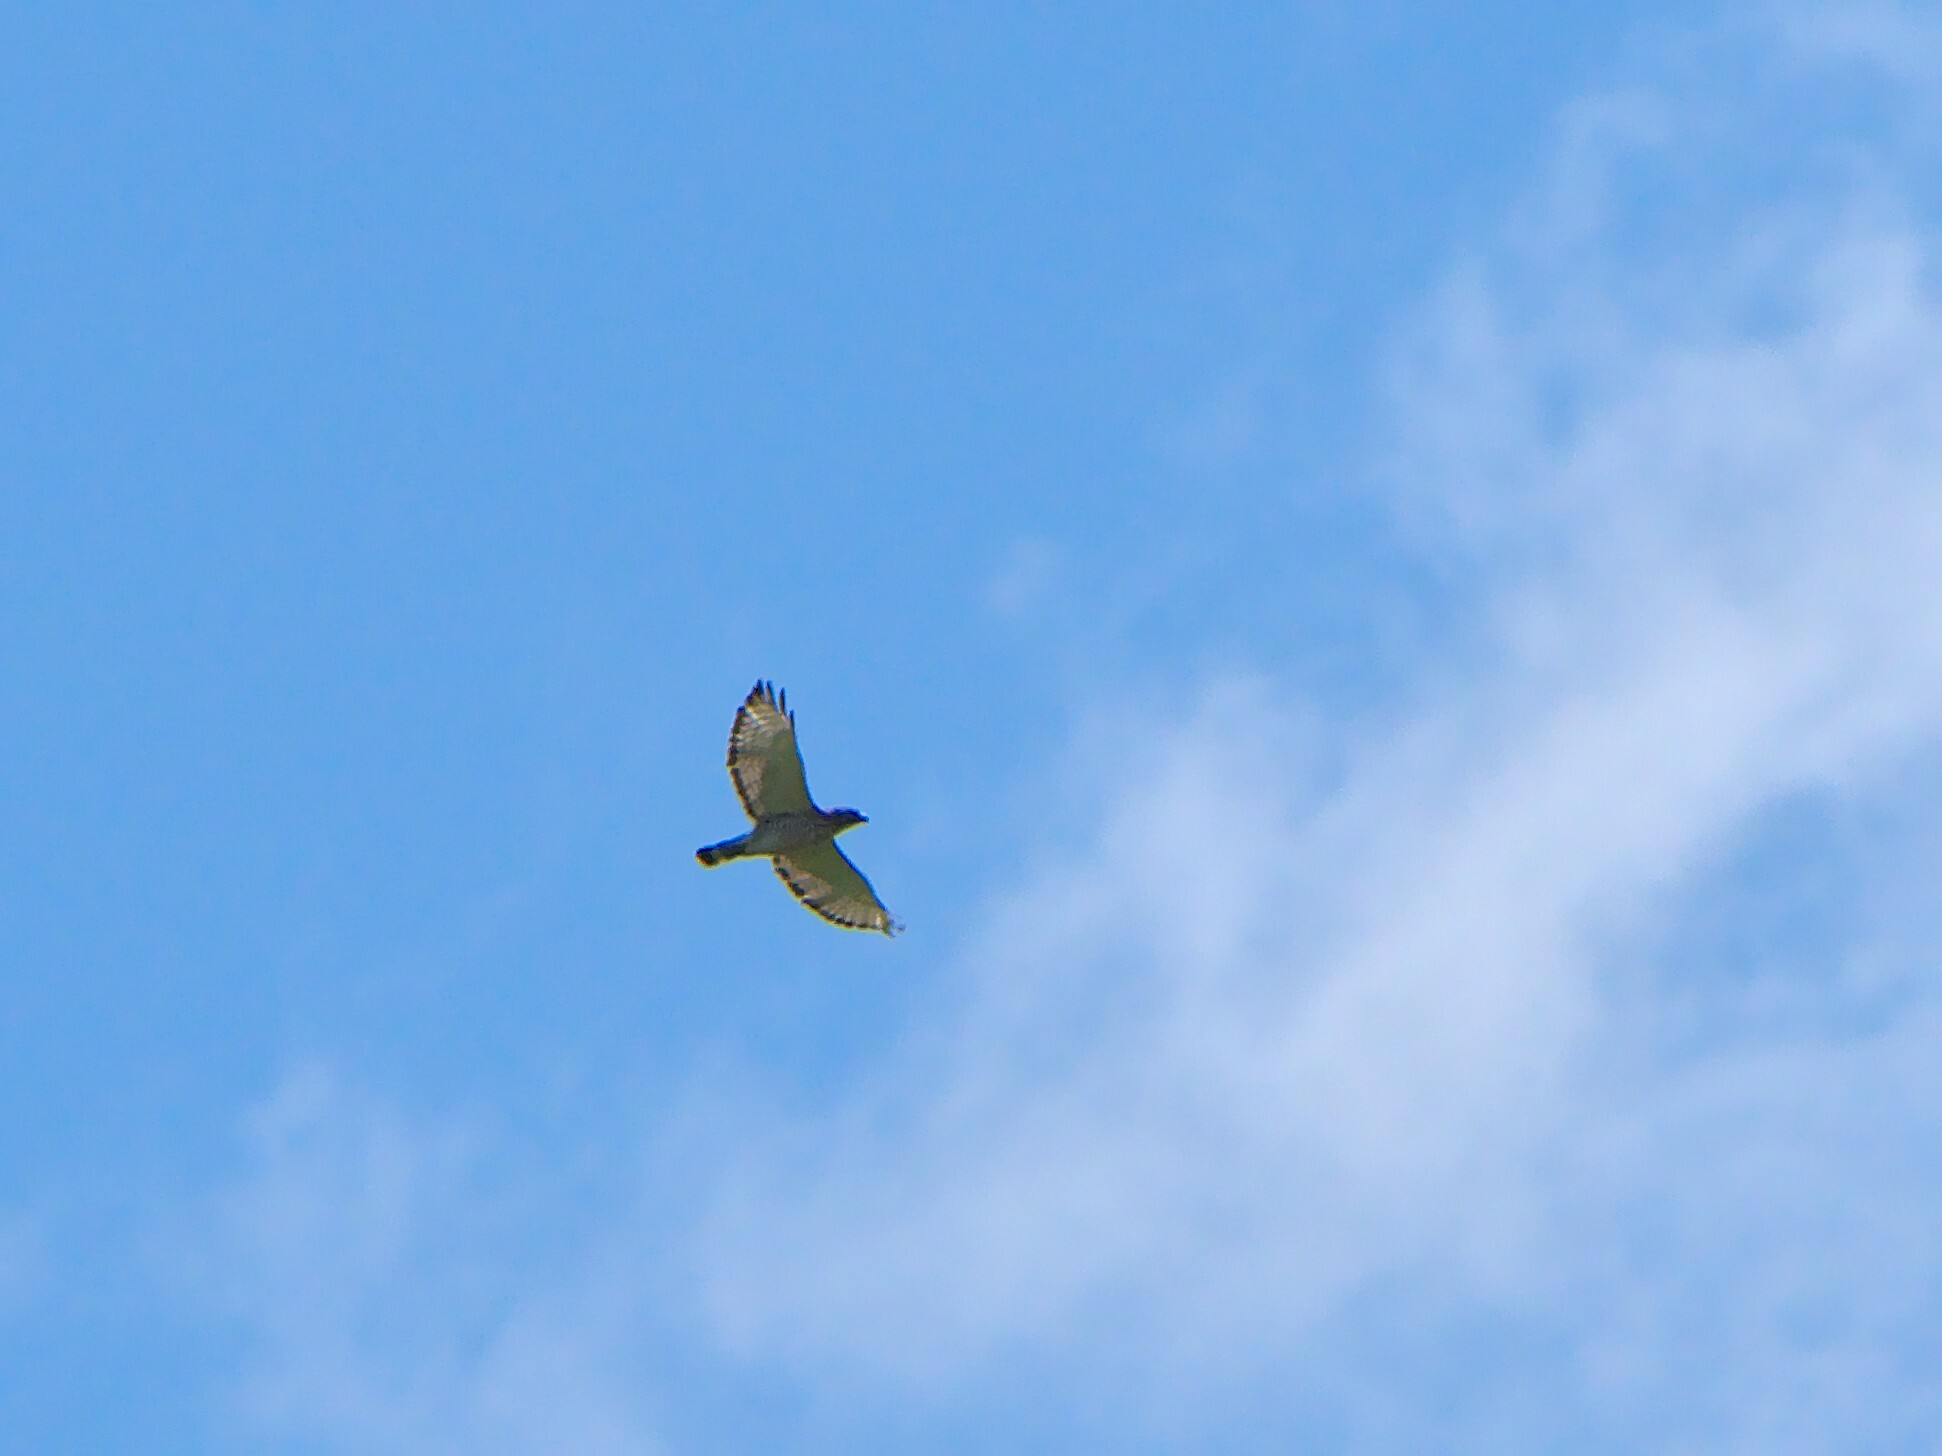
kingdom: Animalia
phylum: Chordata
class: Aves
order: Accipitriformes
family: Accipitridae
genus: Buteo
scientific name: Buteo platypterus
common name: Broad-winged hawk
